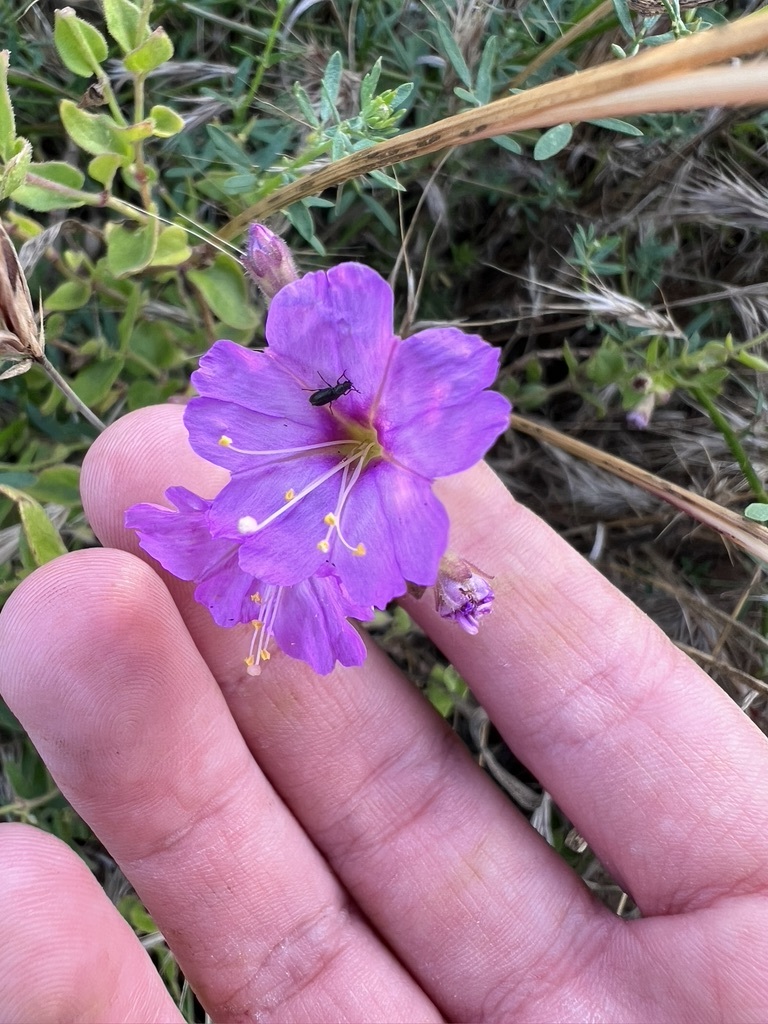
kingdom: Plantae
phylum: Tracheophyta
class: Magnoliopsida
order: Caryophyllales
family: Nyctaginaceae
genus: Mirabilis
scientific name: Mirabilis laevis
